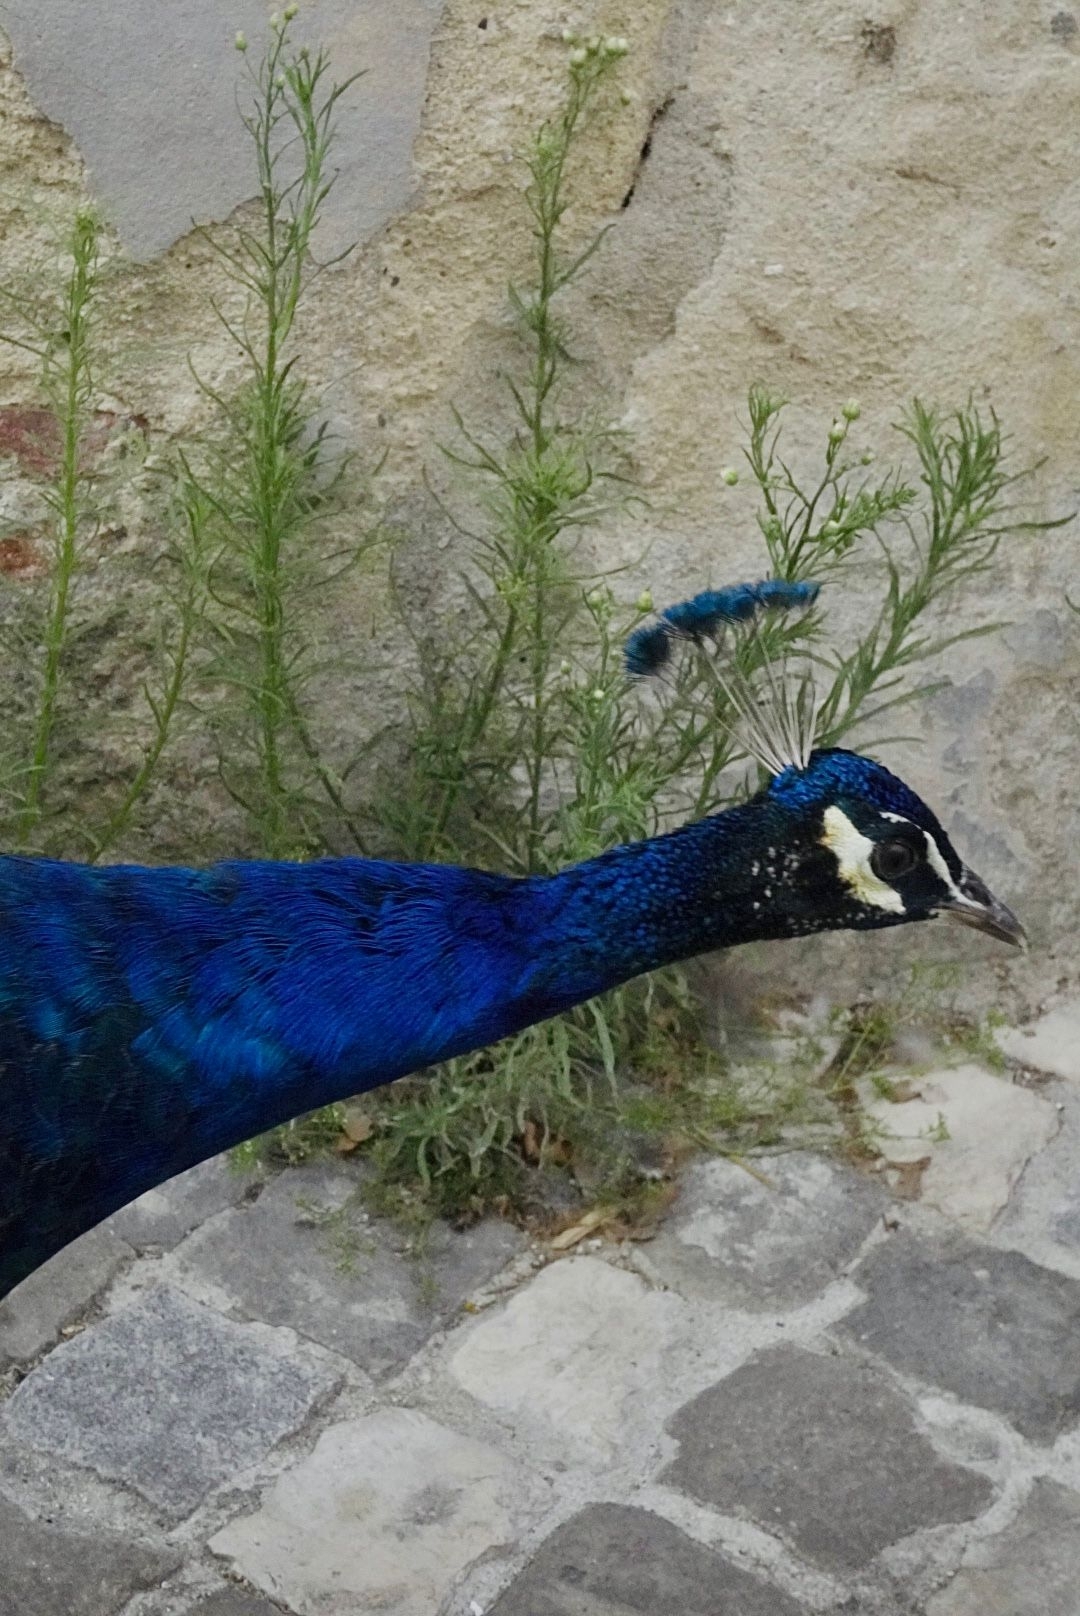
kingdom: Animalia
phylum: Chordata
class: Aves
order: Galliformes
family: Phasianidae
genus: Pavo
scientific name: Pavo cristatus
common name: Indian peafowl
